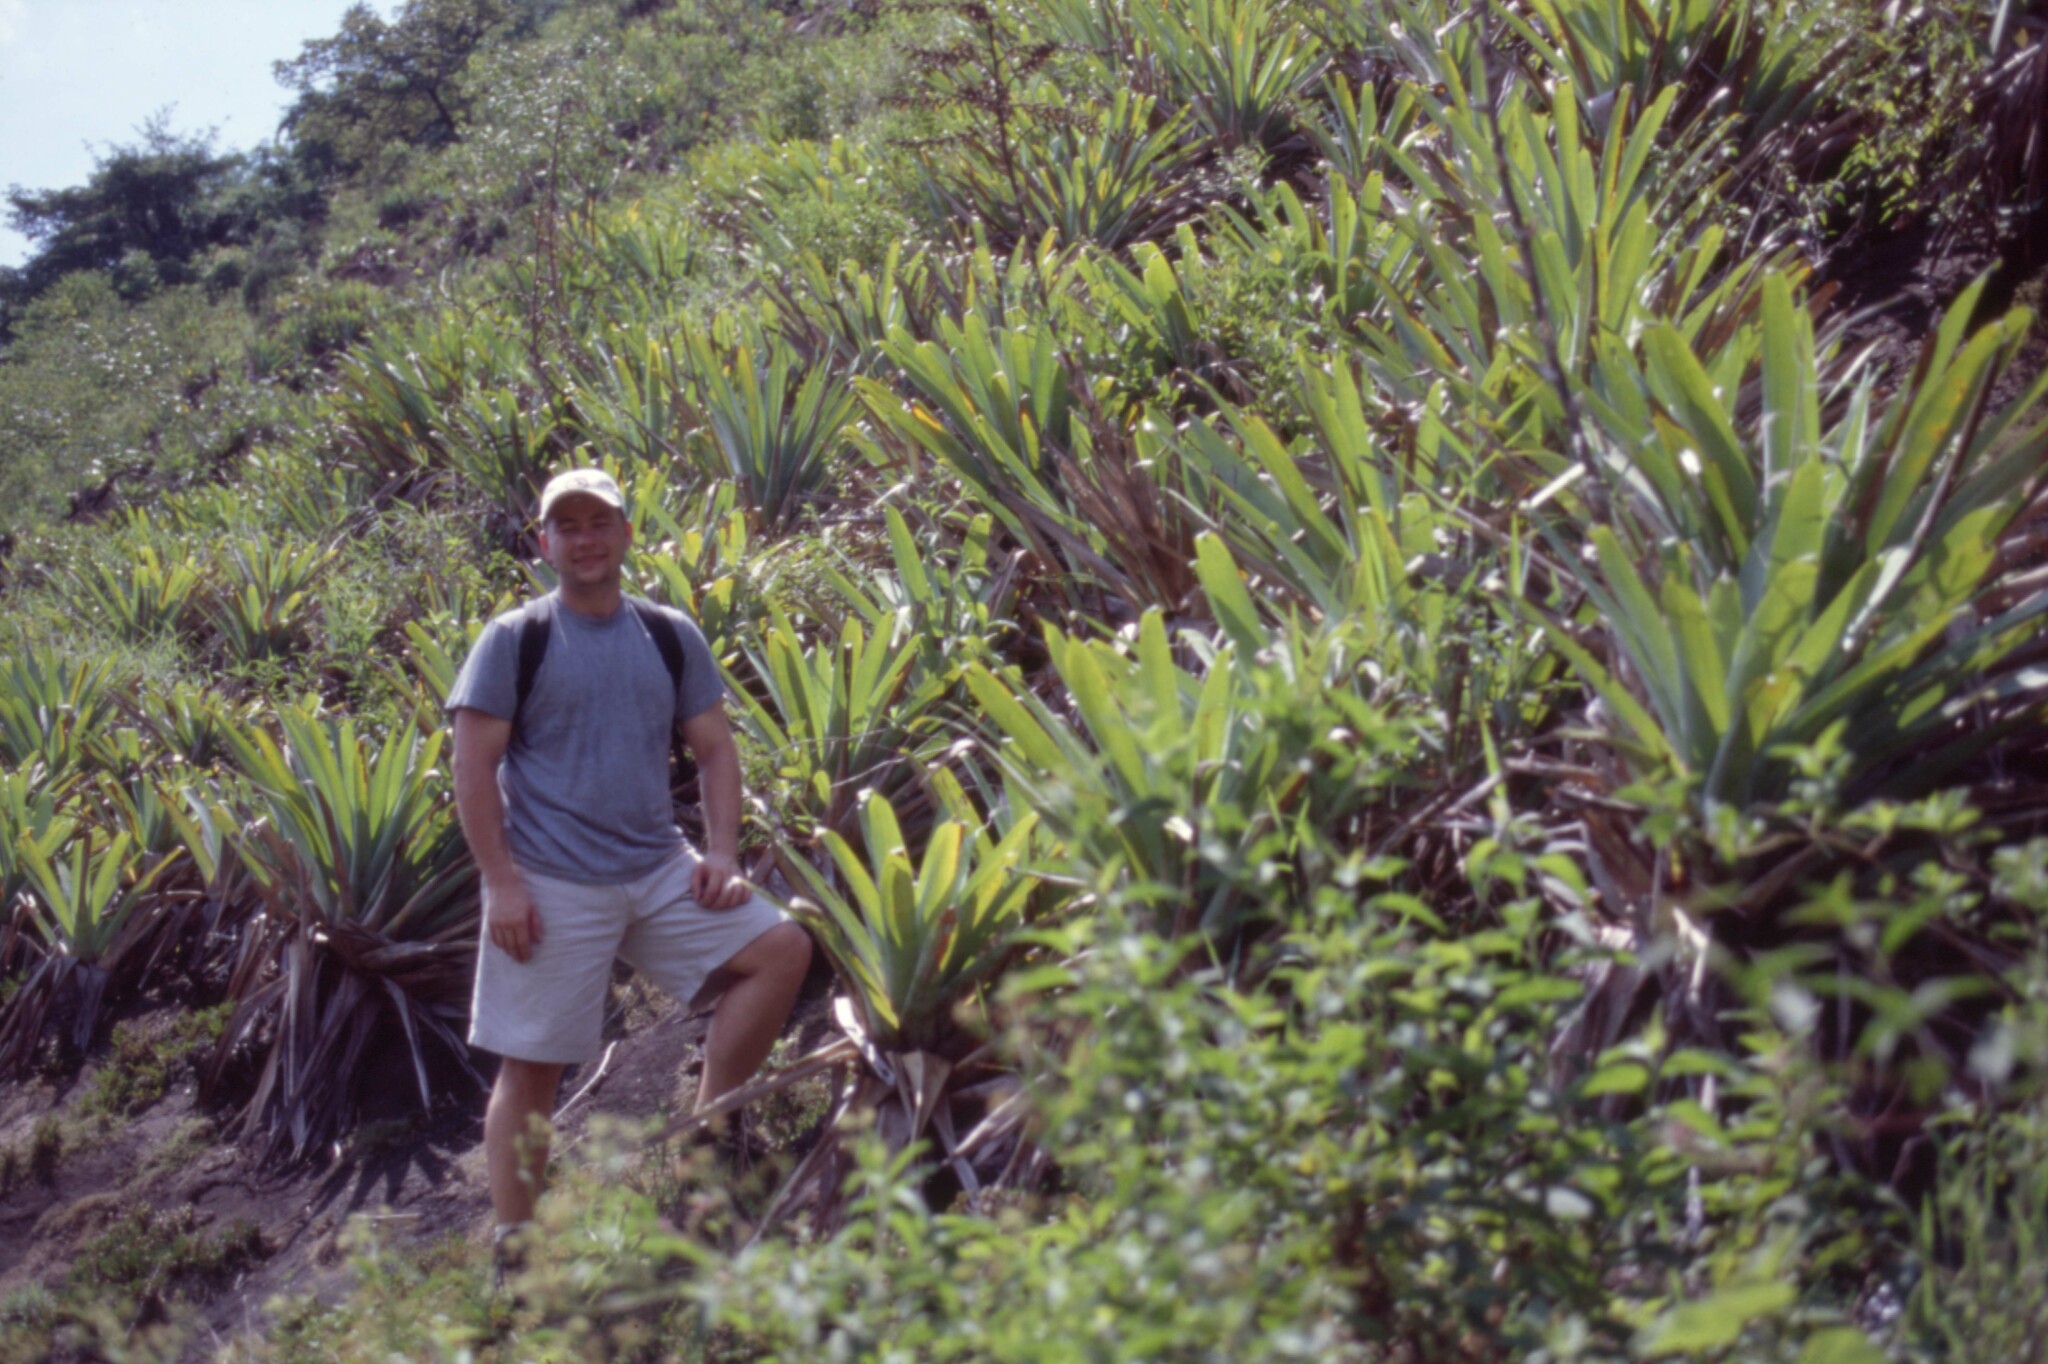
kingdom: Plantae
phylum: Tracheophyta
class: Liliopsida
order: Poales
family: Bromeliaceae
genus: Alcantarea
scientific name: Alcantarea heloisae
